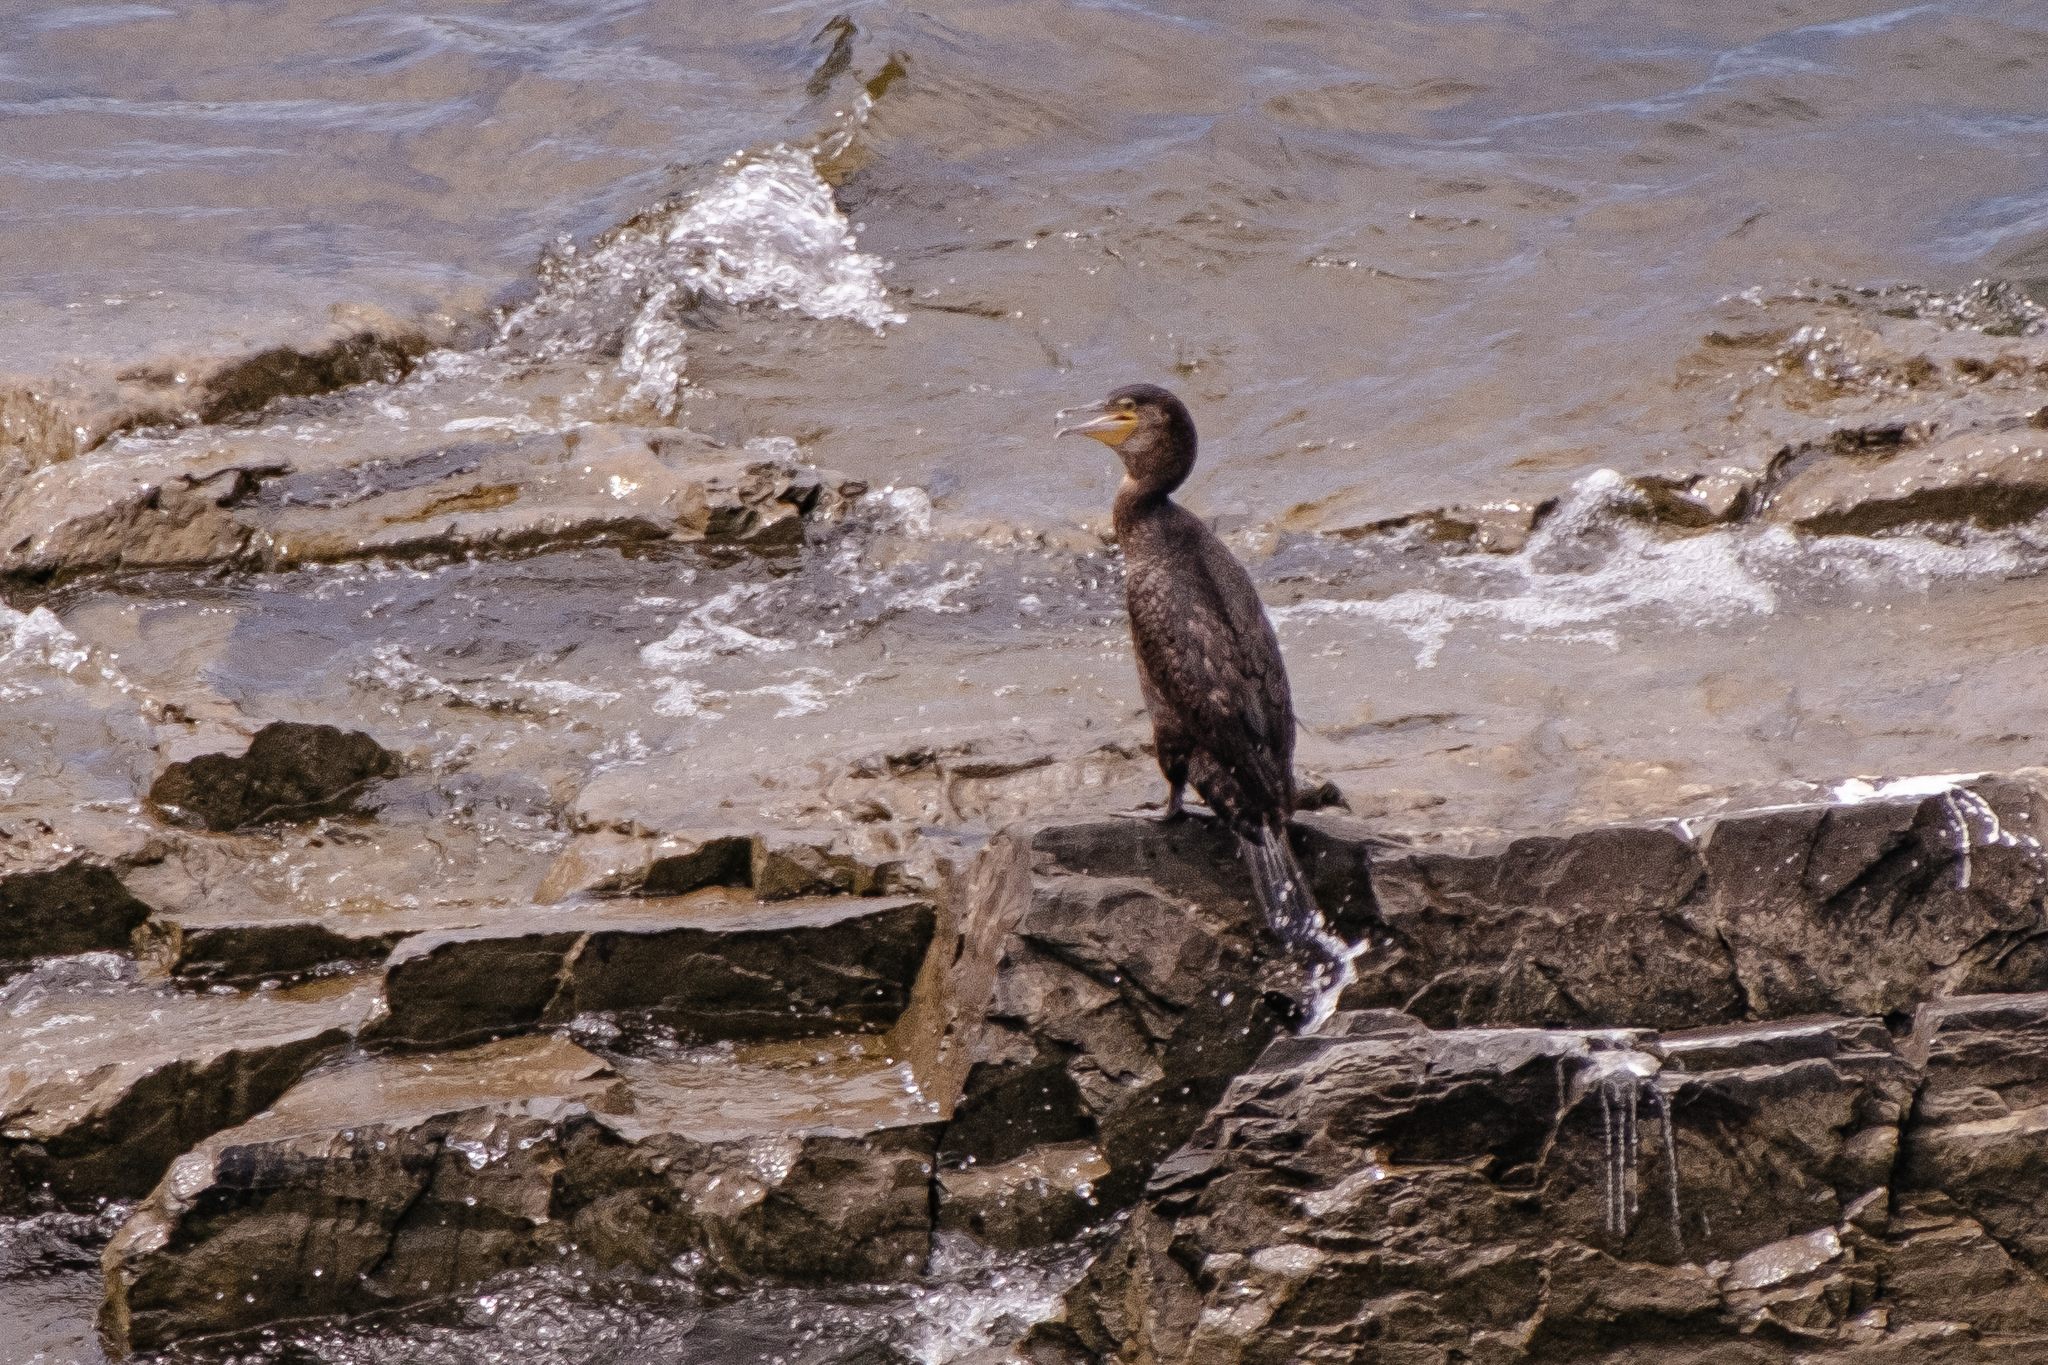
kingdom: Animalia
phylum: Chordata
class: Aves
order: Suliformes
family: Phalacrocoracidae
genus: Phalacrocorax
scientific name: Phalacrocorax carbo
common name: Great cormorant
